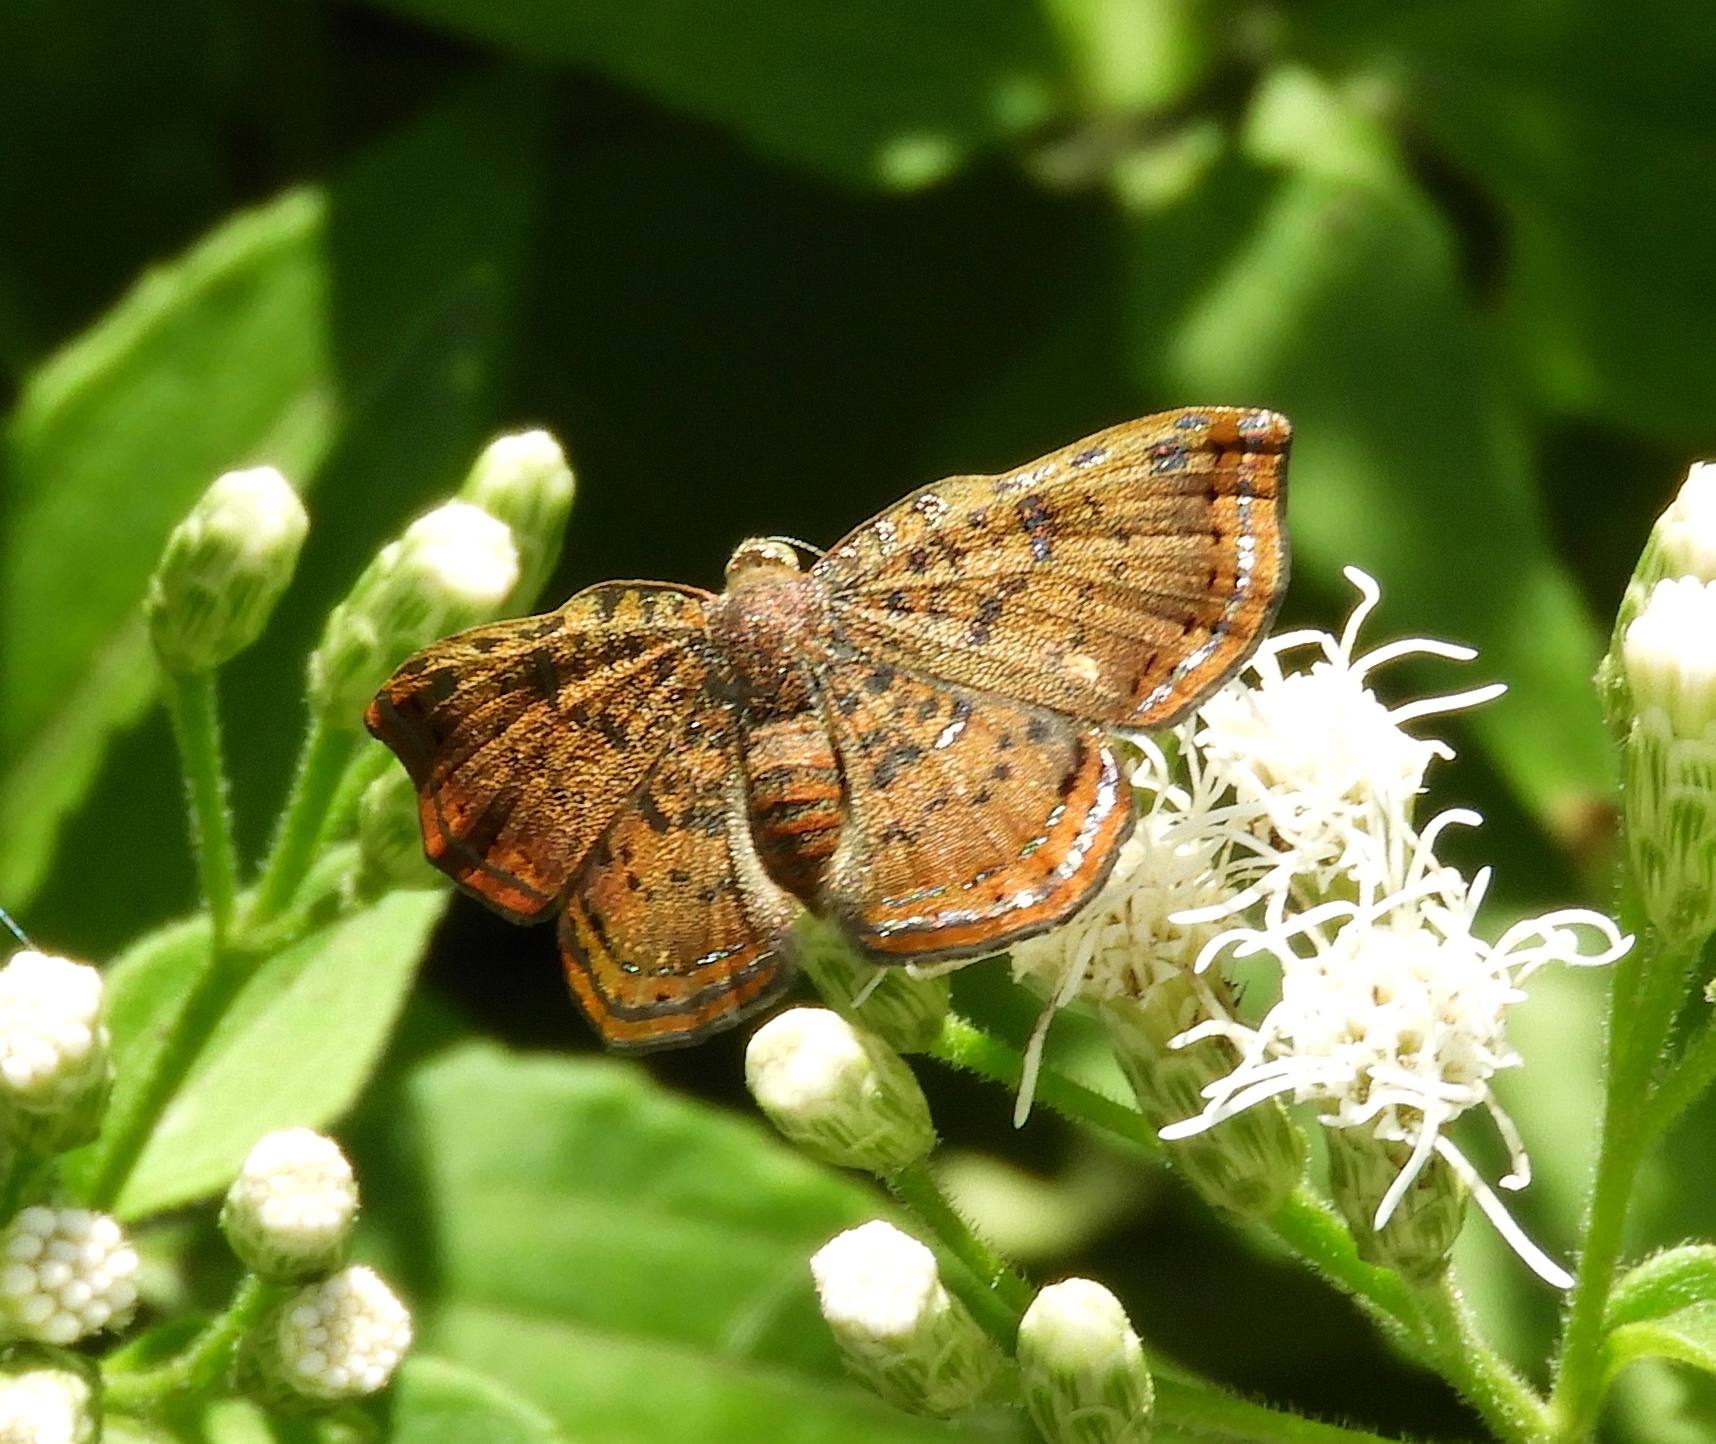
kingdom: Animalia
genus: Caria
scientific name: Caria ino
